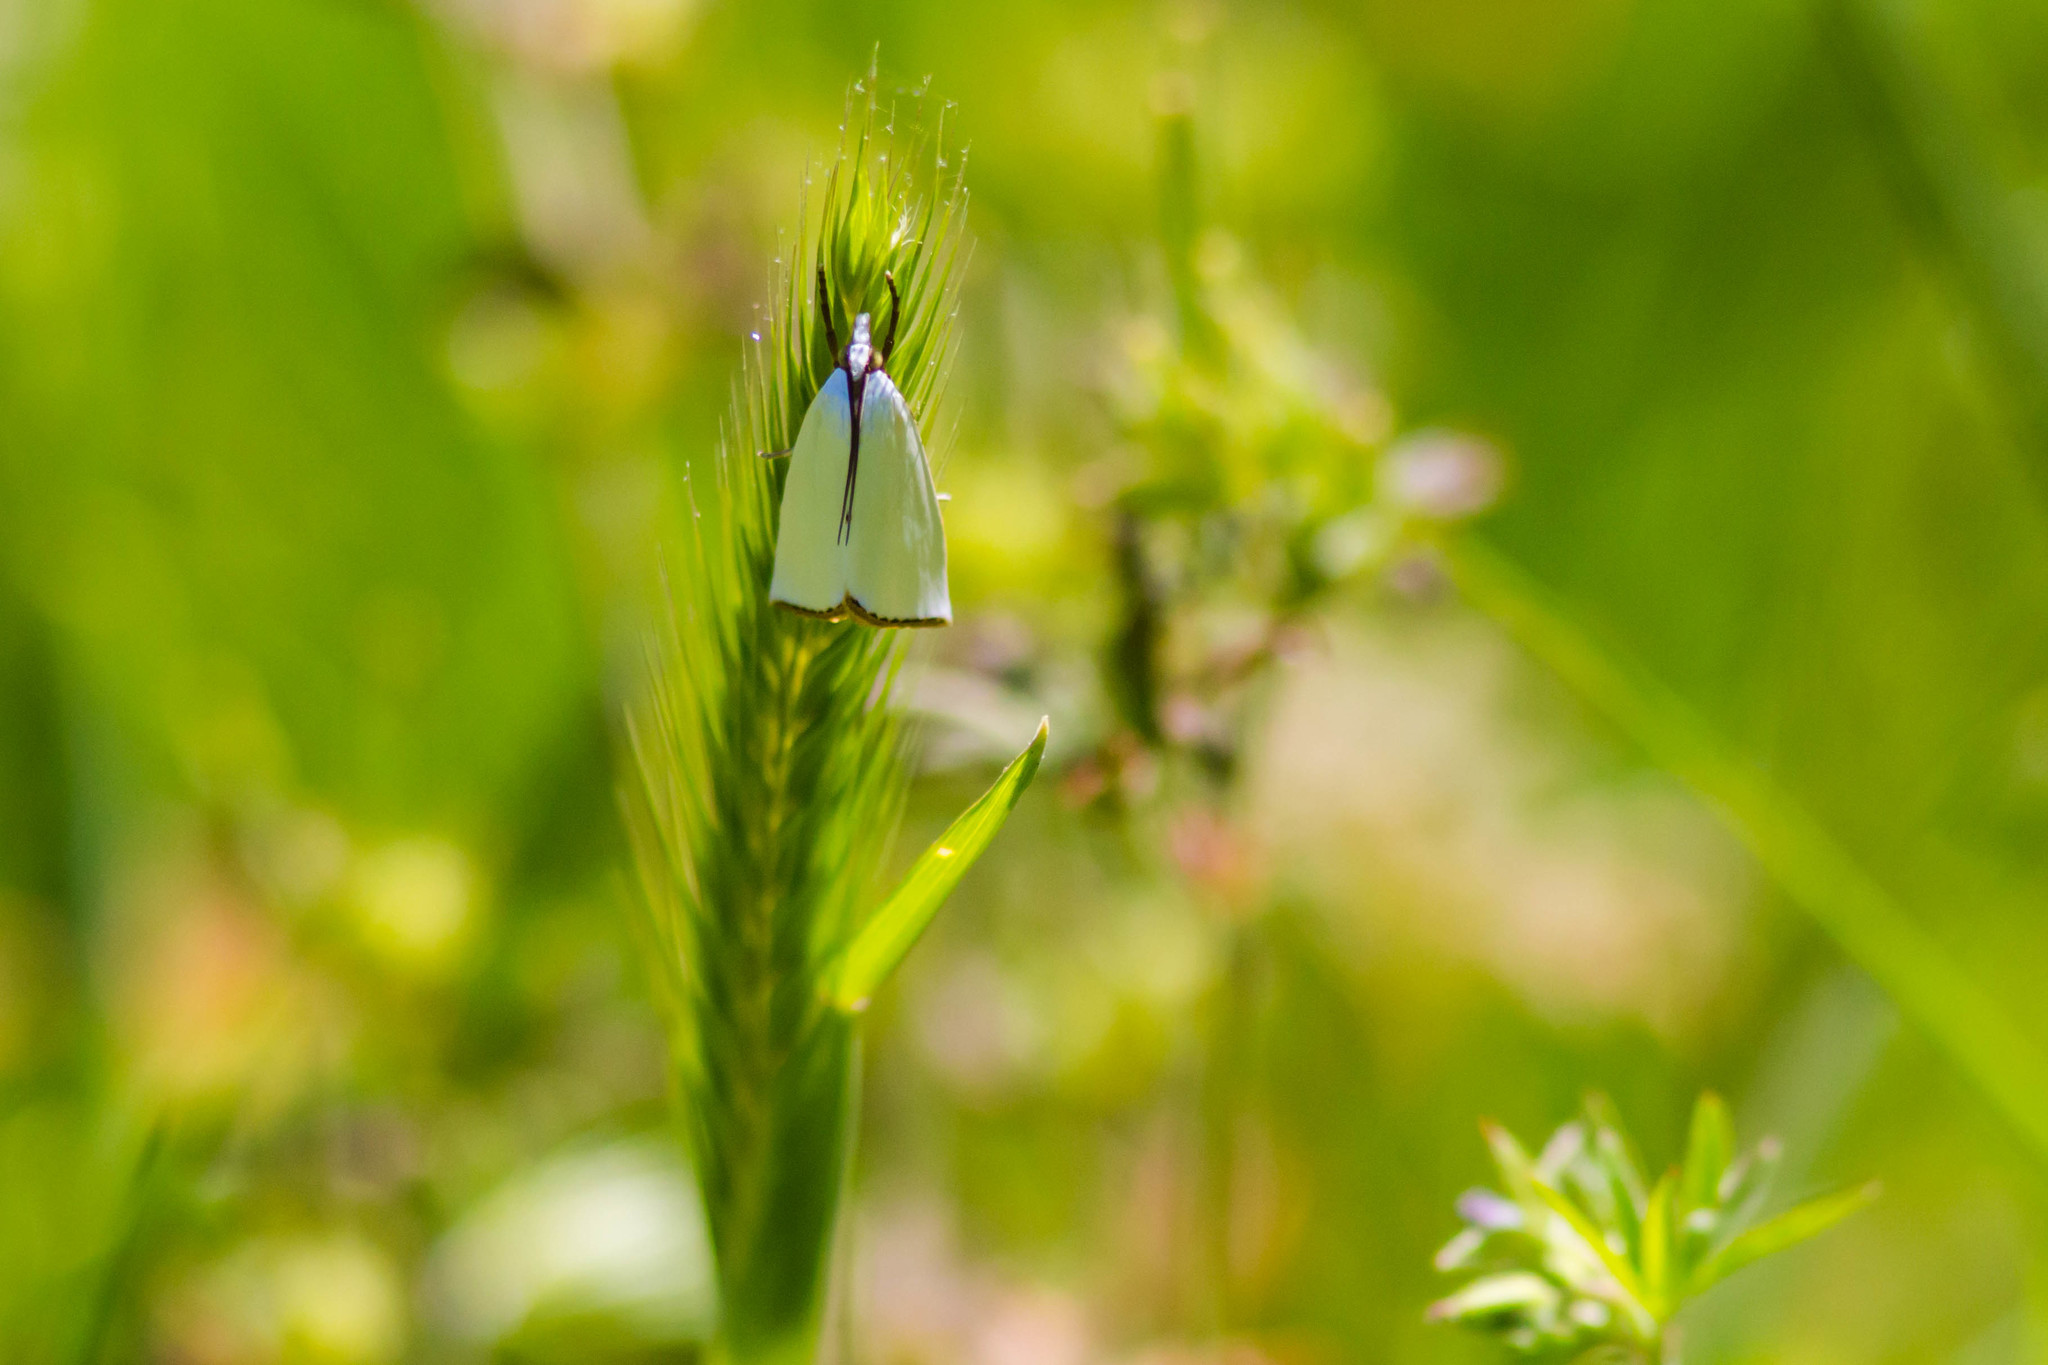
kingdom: Animalia
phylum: Arthropoda
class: Insecta
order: Lepidoptera
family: Crambidae
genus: Argyria
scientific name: Argyria nivalis
